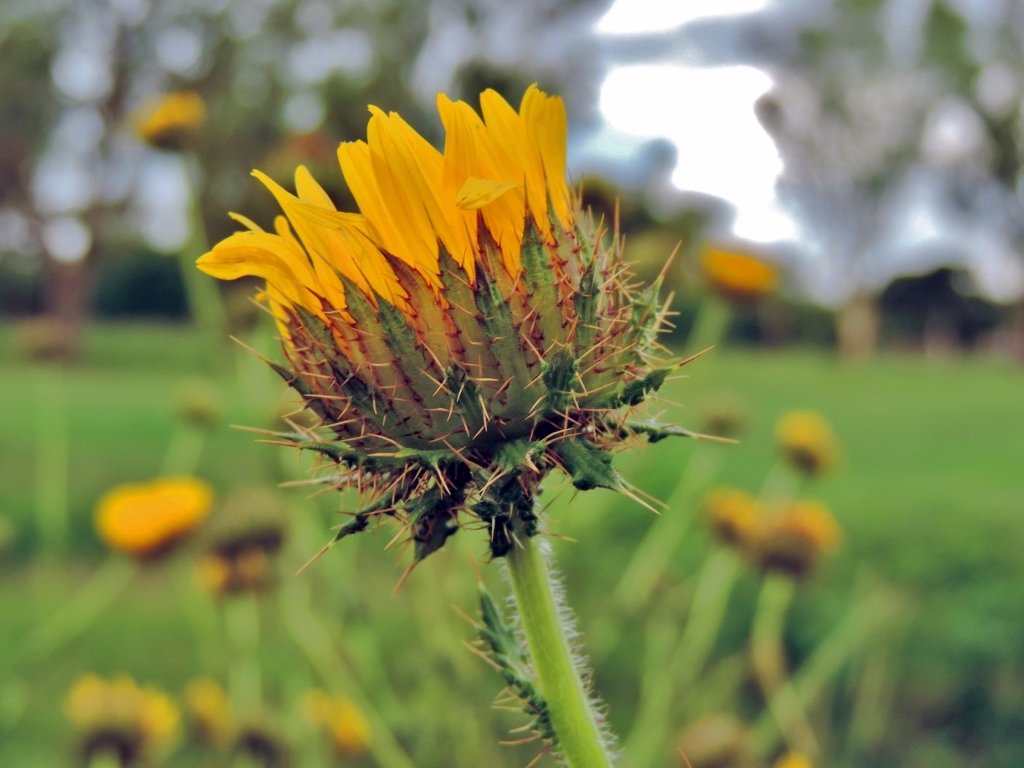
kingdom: Plantae
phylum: Tracheophyta
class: Magnoliopsida
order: Asterales
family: Asteraceae
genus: Berkheya
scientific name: Berkheya radula
